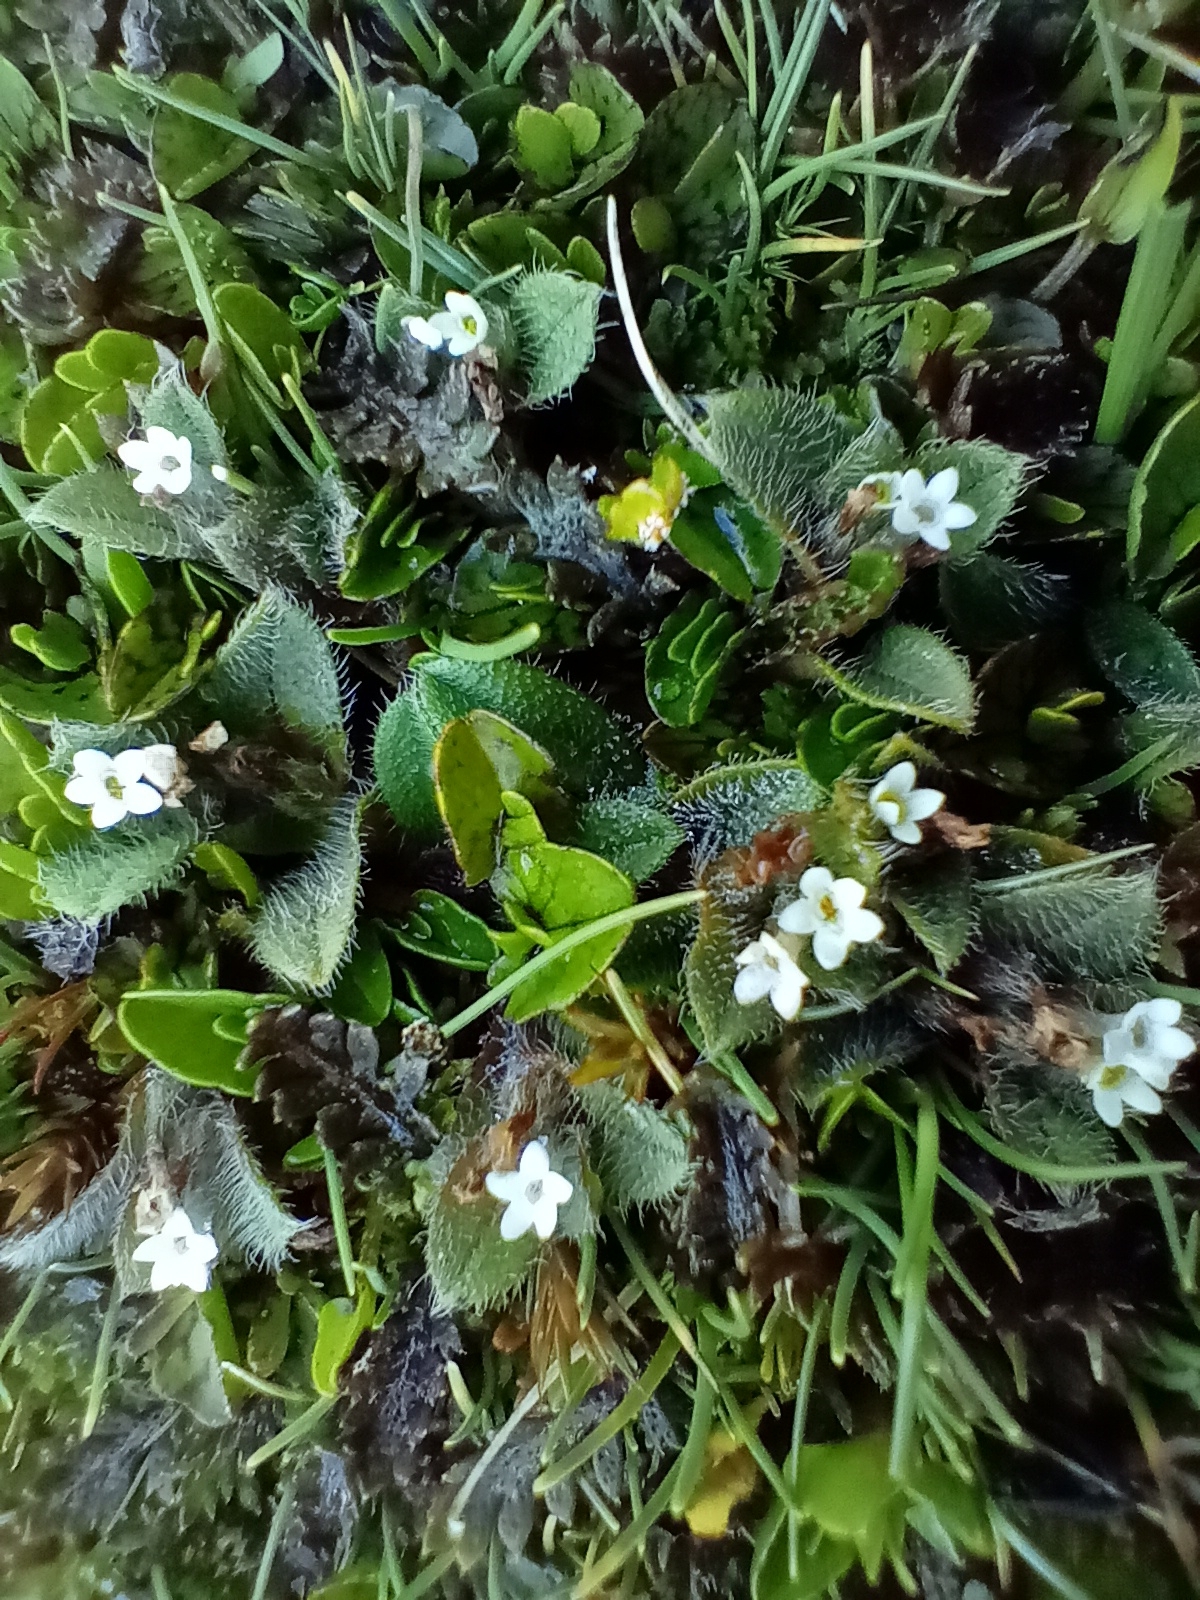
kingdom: Plantae
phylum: Tracheophyta
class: Magnoliopsida
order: Boraginales
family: Boraginaceae
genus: Myosotis
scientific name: Myosotis antarctica
